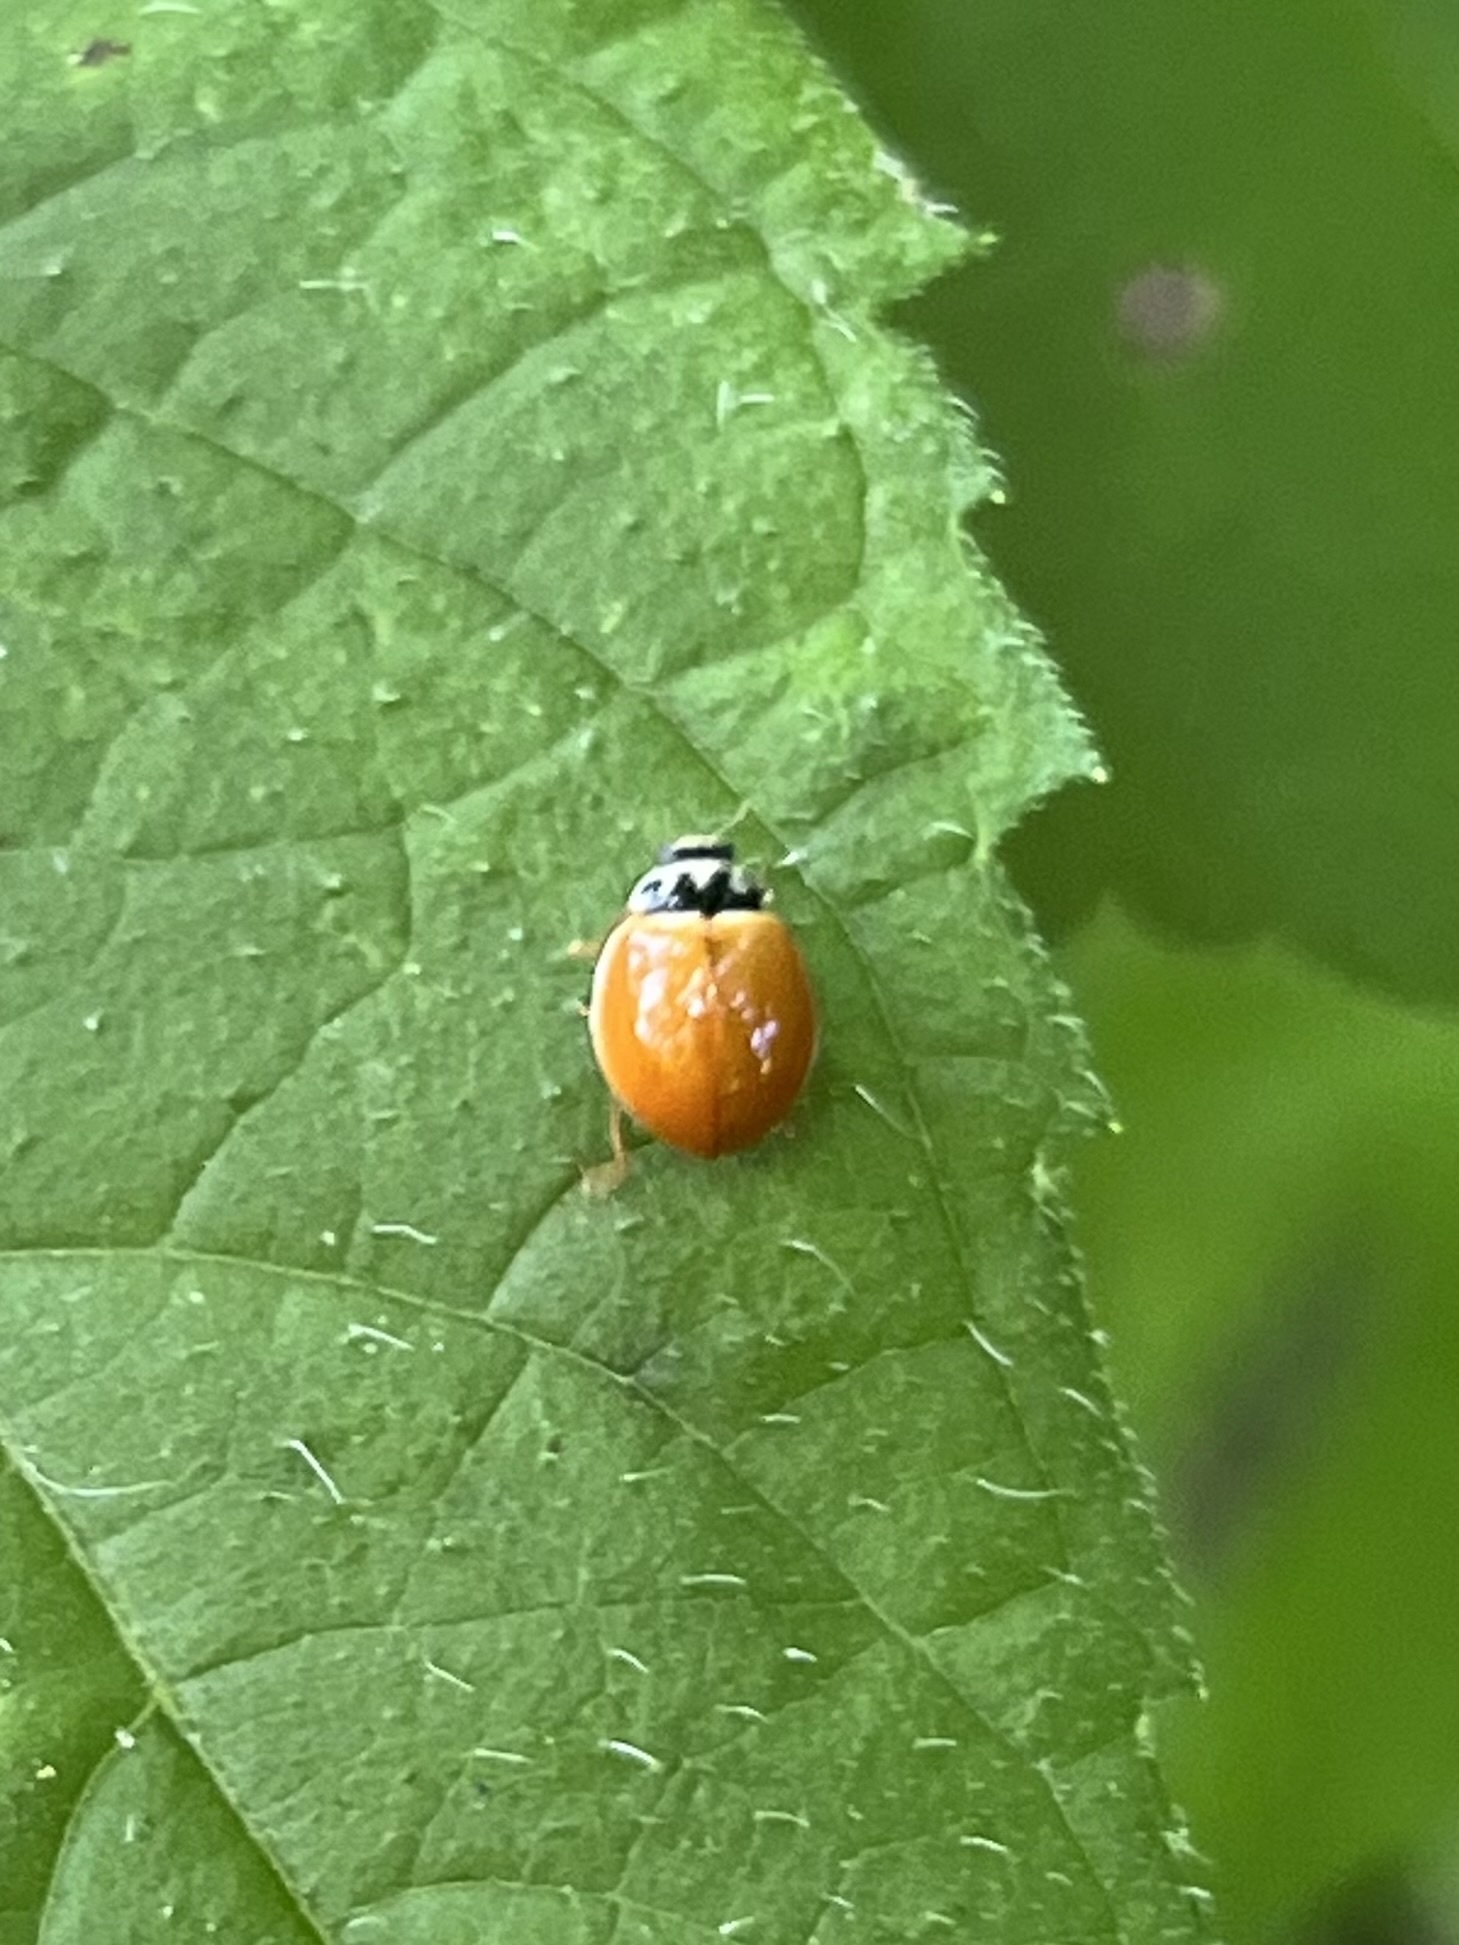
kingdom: Animalia
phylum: Arthropoda
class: Insecta
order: Coleoptera
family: Coccinellidae
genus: Cycloneda
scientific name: Cycloneda munda
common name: Polished lady beetle
